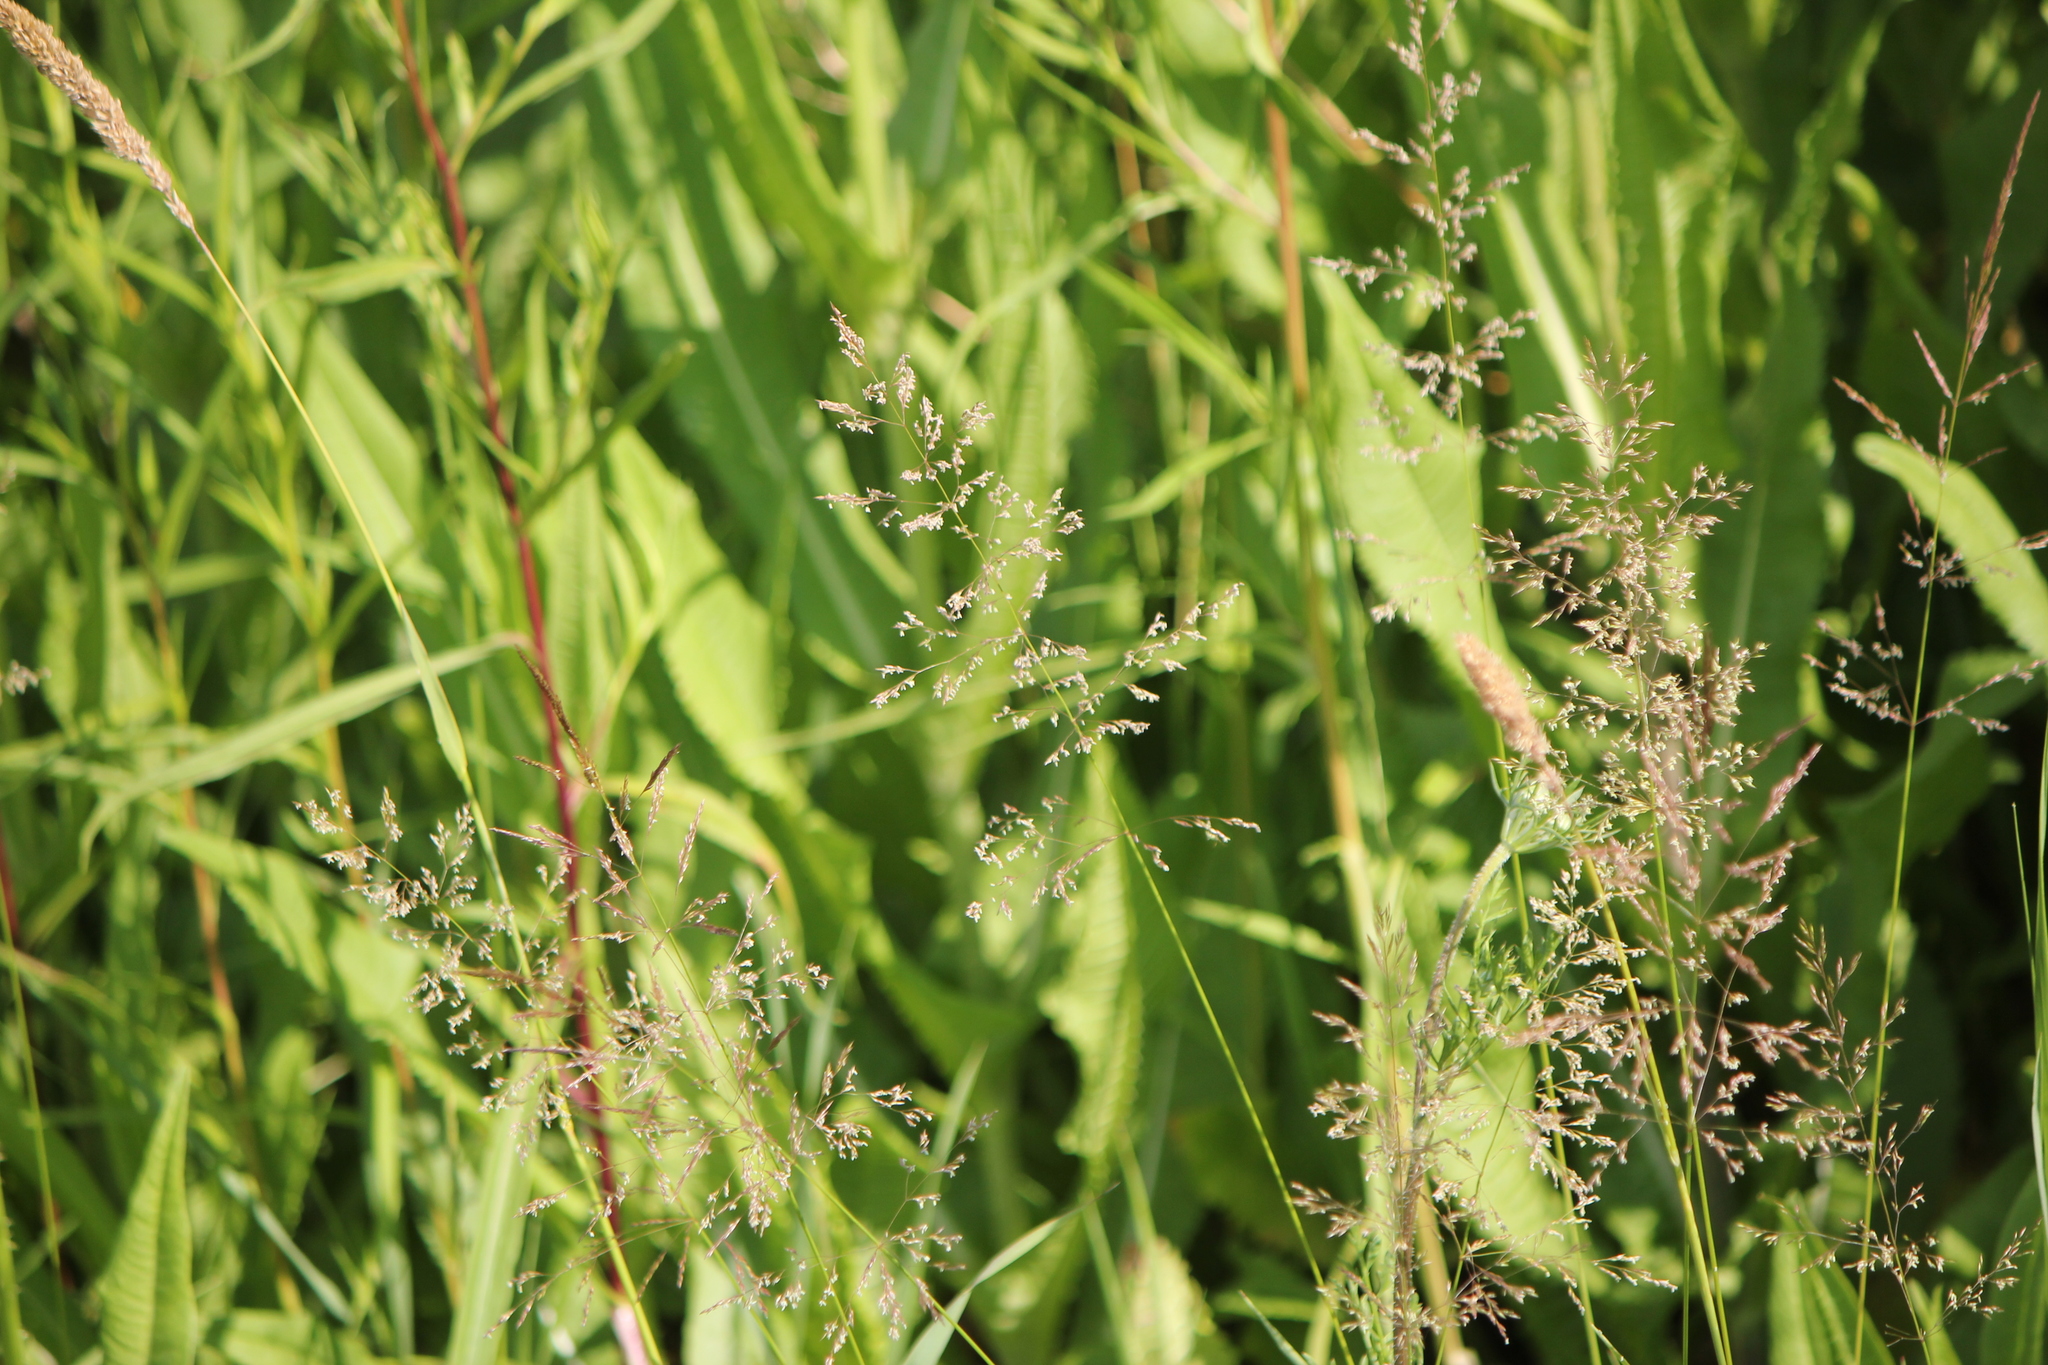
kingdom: Plantae
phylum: Tracheophyta
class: Liliopsida
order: Poales
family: Poaceae
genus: Agrostis
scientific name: Agrostis gigantea
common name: Black bent
